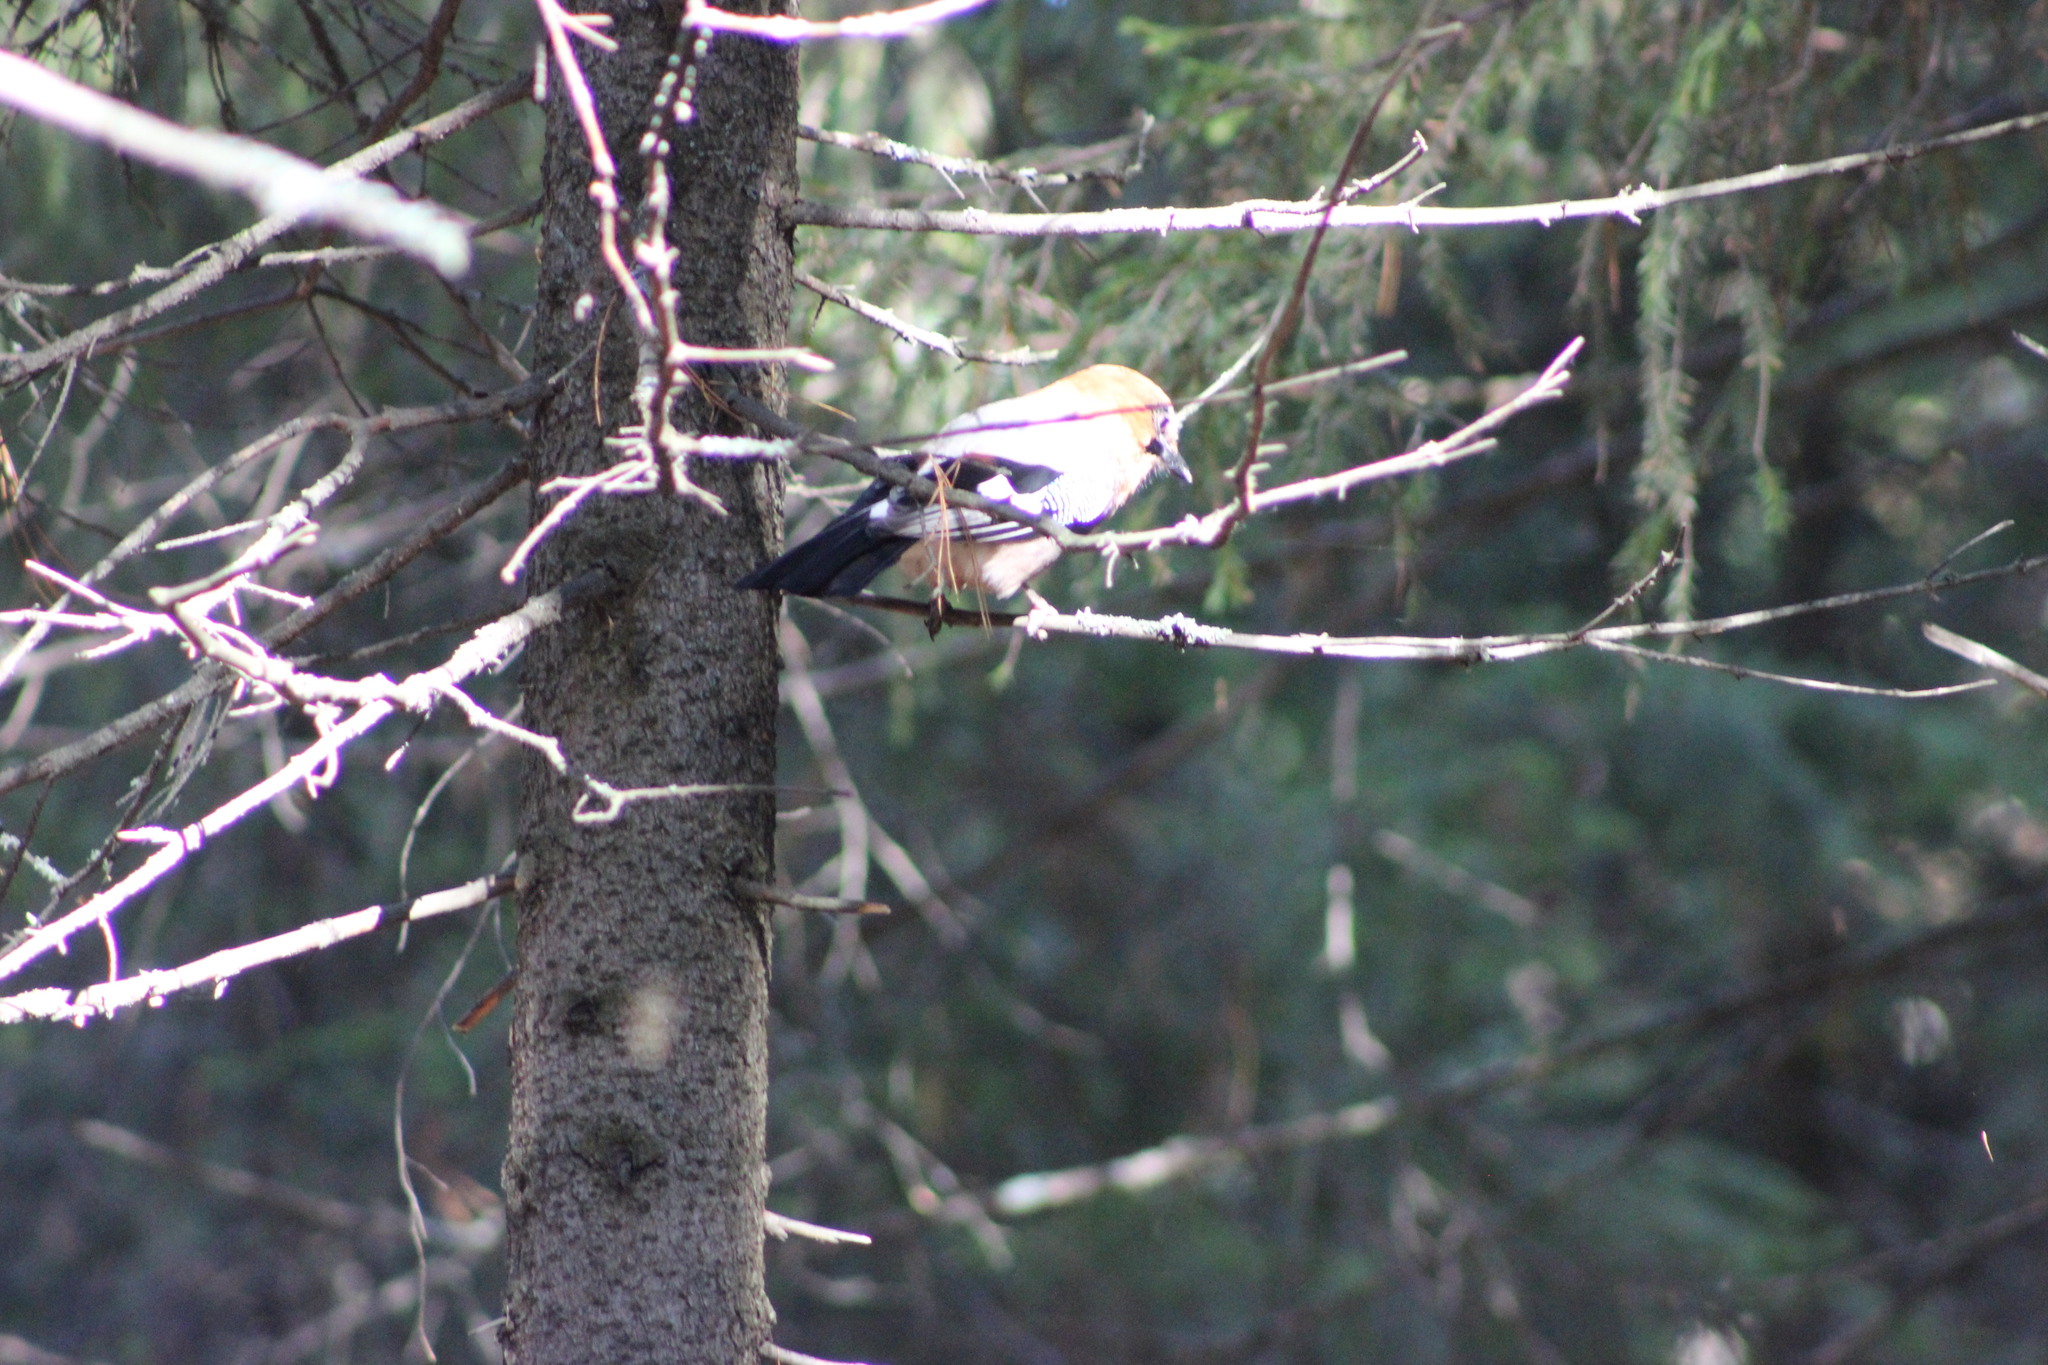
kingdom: Animalia
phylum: Chordata
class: Aves
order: Passeriformes
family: Corvidae
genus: Garrulus
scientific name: Garrulus glandarius
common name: Eurasian jay
